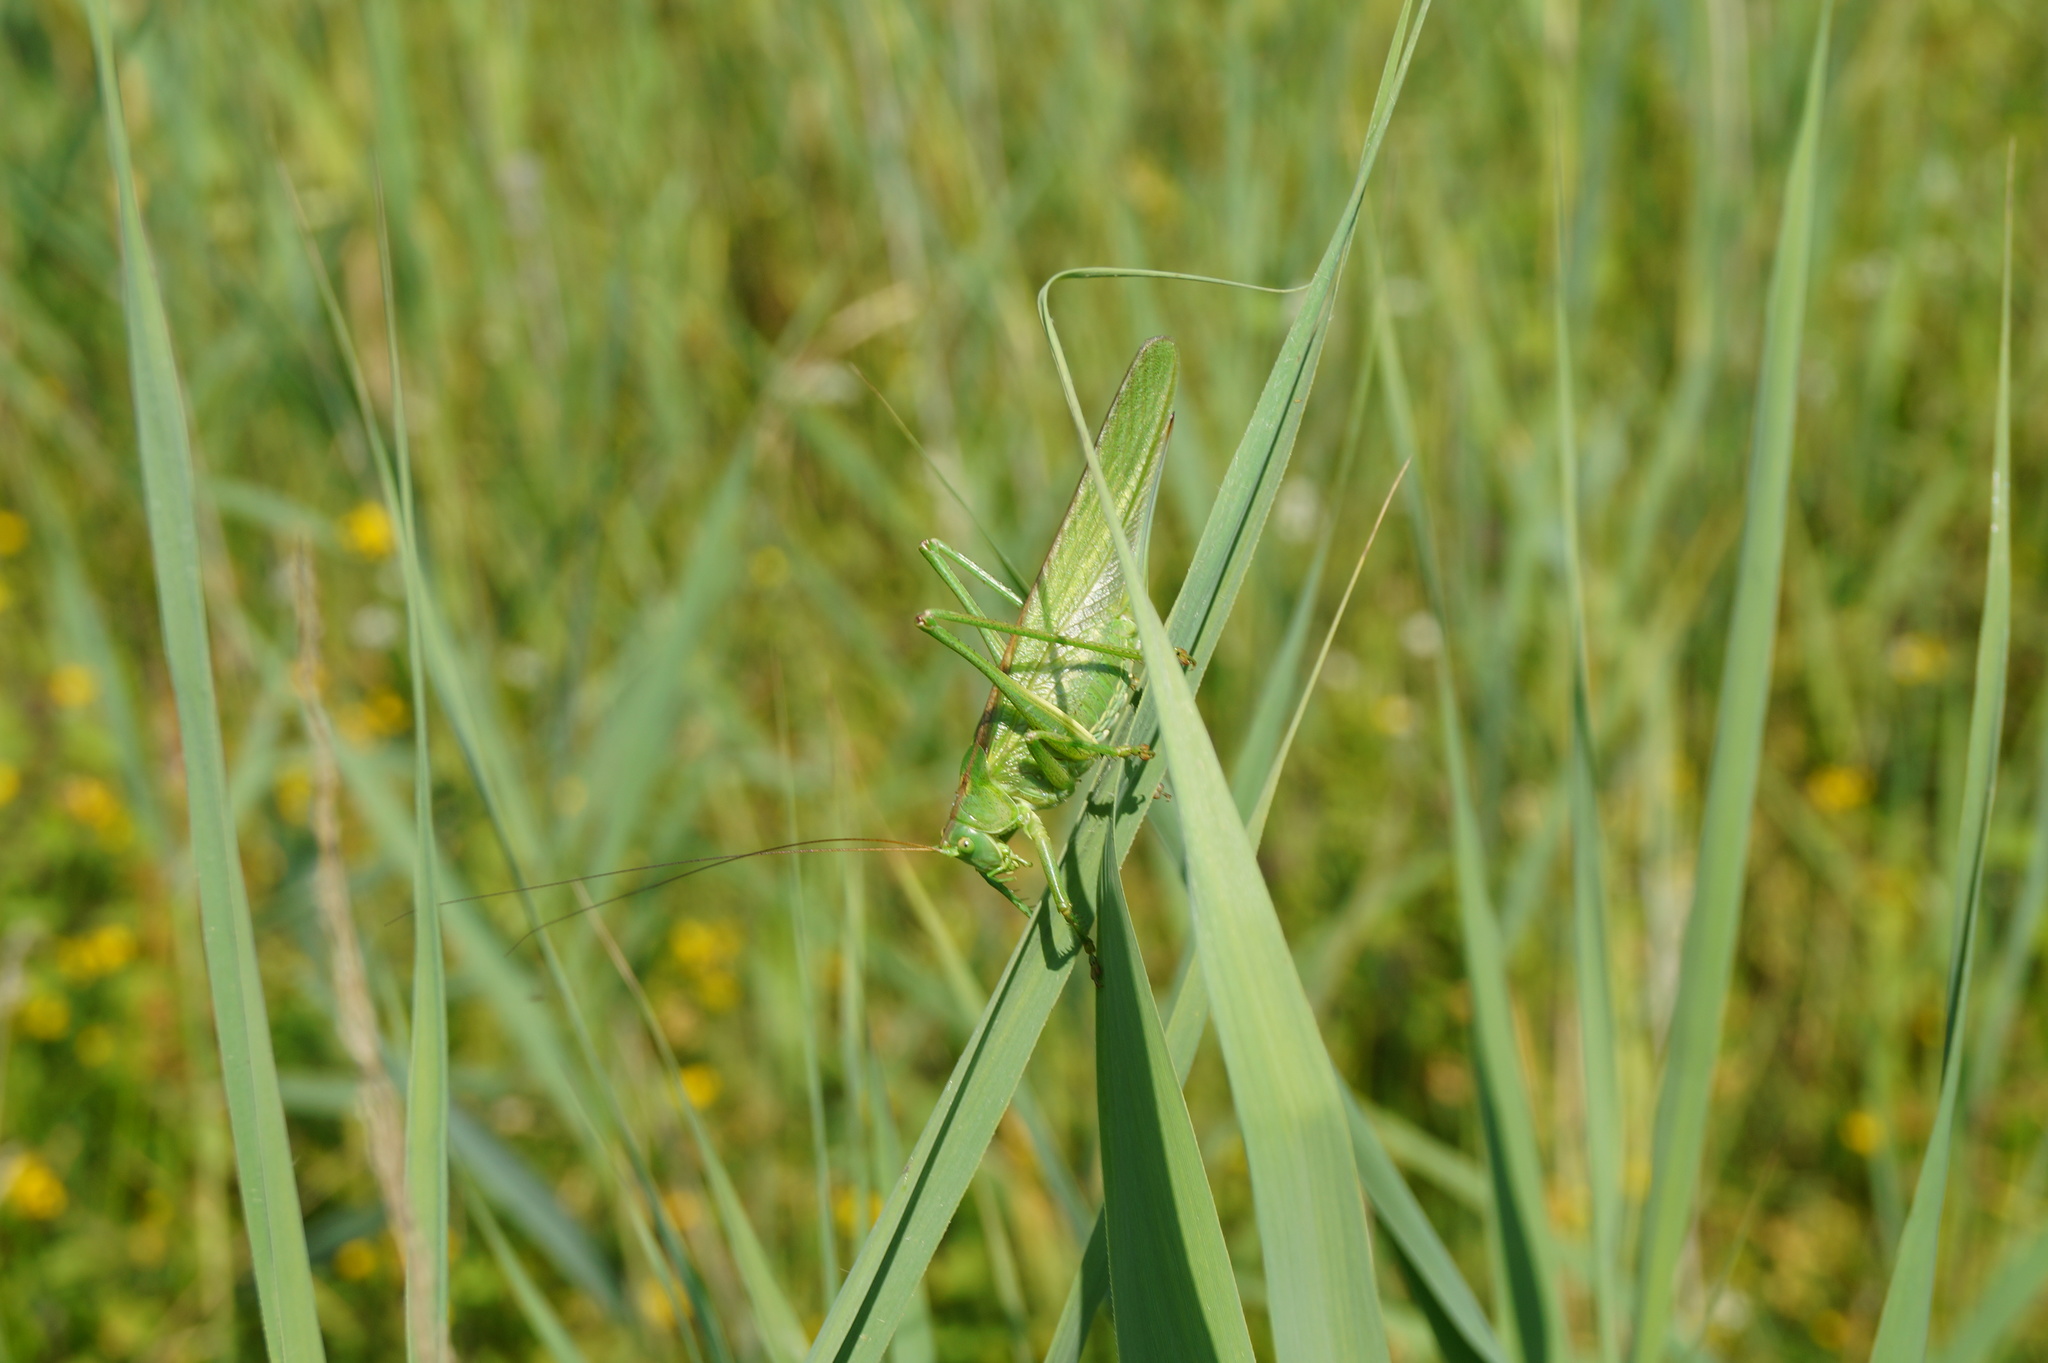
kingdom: Animalia
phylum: Arthropoda
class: Insecta
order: Orthoptera
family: Tettigoniidae
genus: Tettigonia
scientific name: Tettigonia viridissima
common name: Great green bush-cricket
